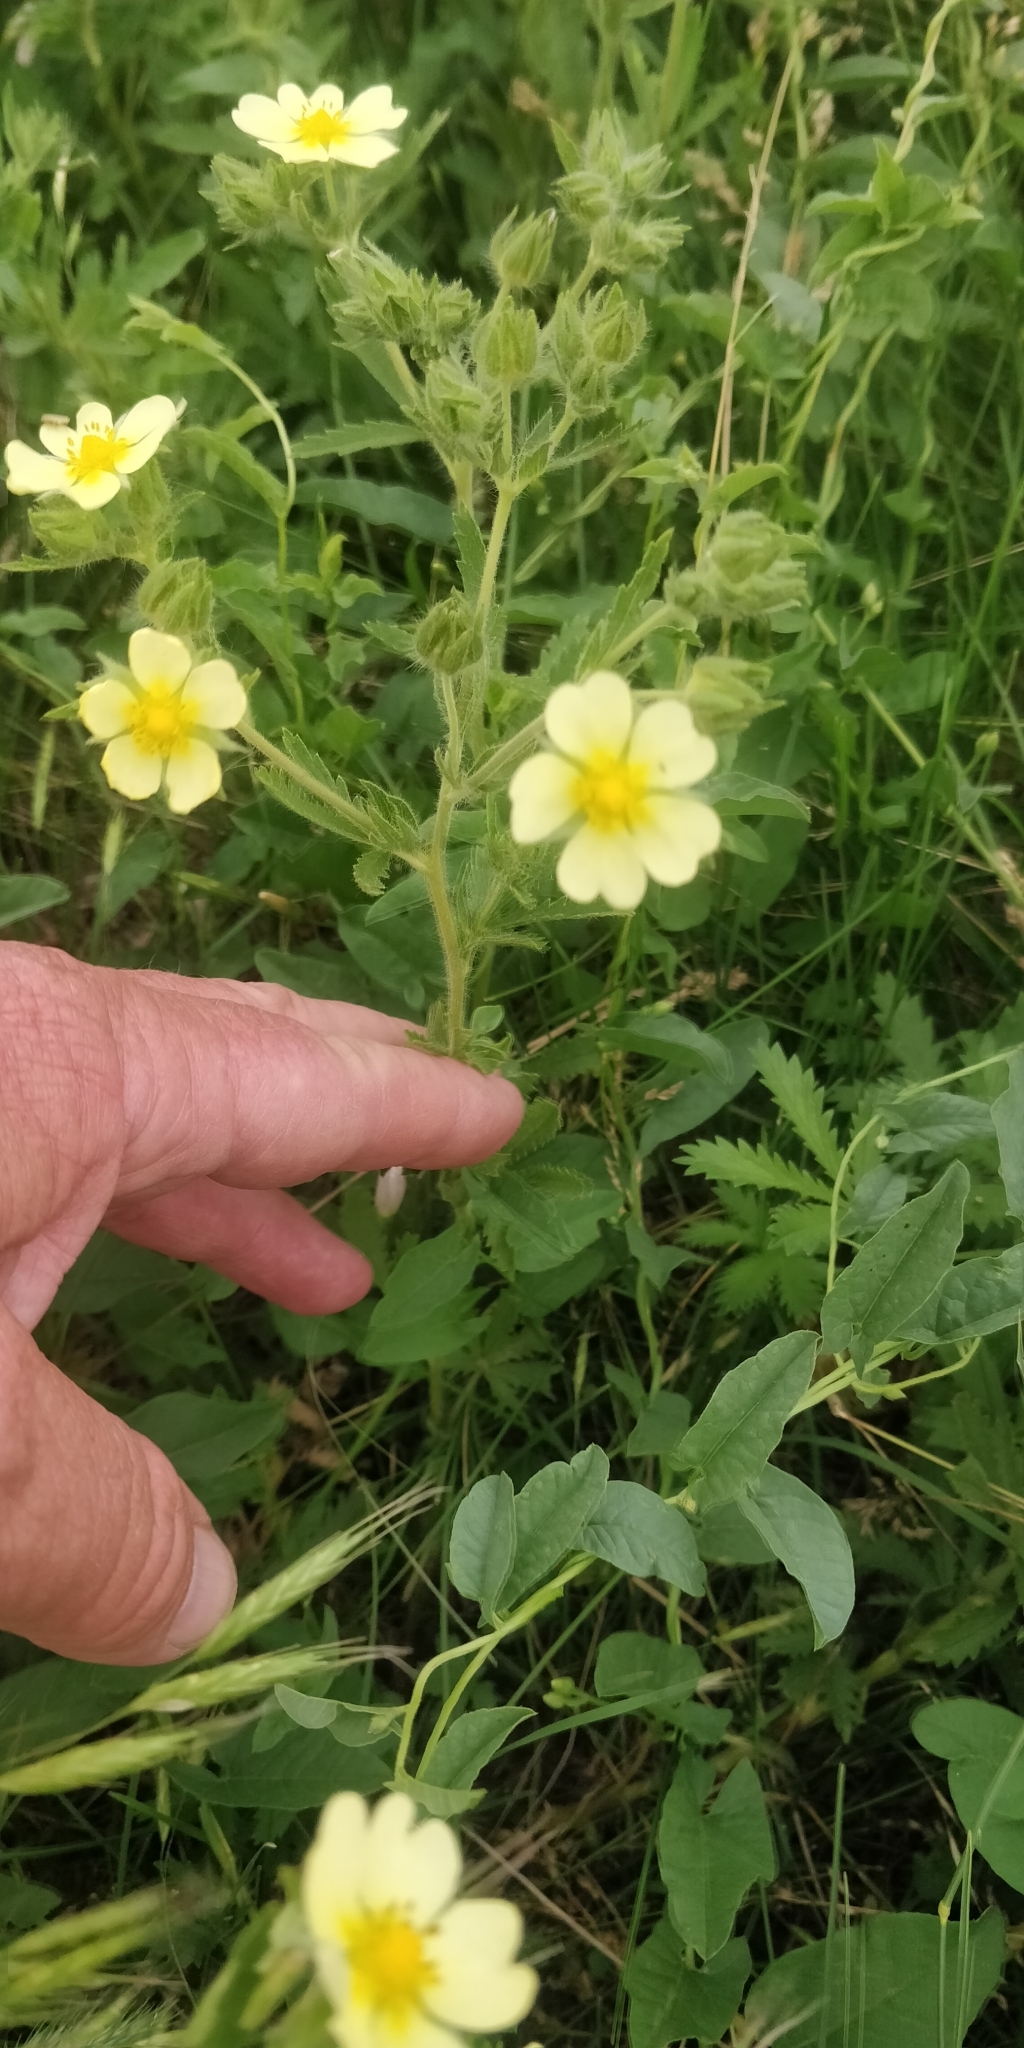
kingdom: Plantae
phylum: Tracheophyta
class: Magnoliopsida
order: Rosales
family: Rosaceae
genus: Potentilla
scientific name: Potentilla recta
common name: Sulphur cinquefoil
